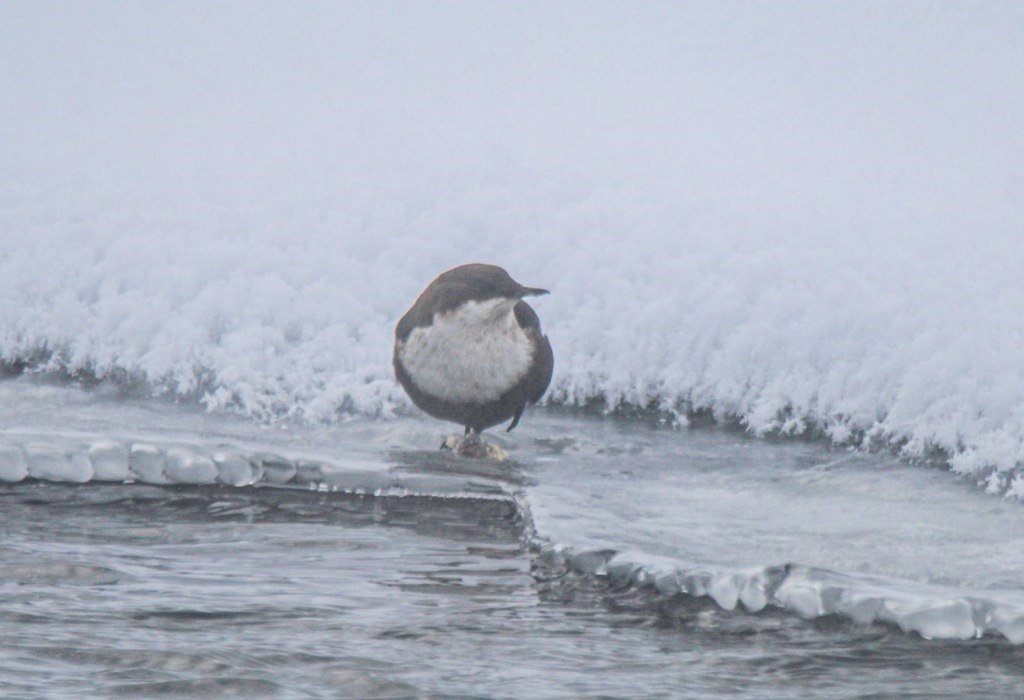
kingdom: Animalia
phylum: Chordata
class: Aves
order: Passeriformes
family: Cinclidae
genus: Cinclus
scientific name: Cinclus cinclus
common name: White-throated dipper
